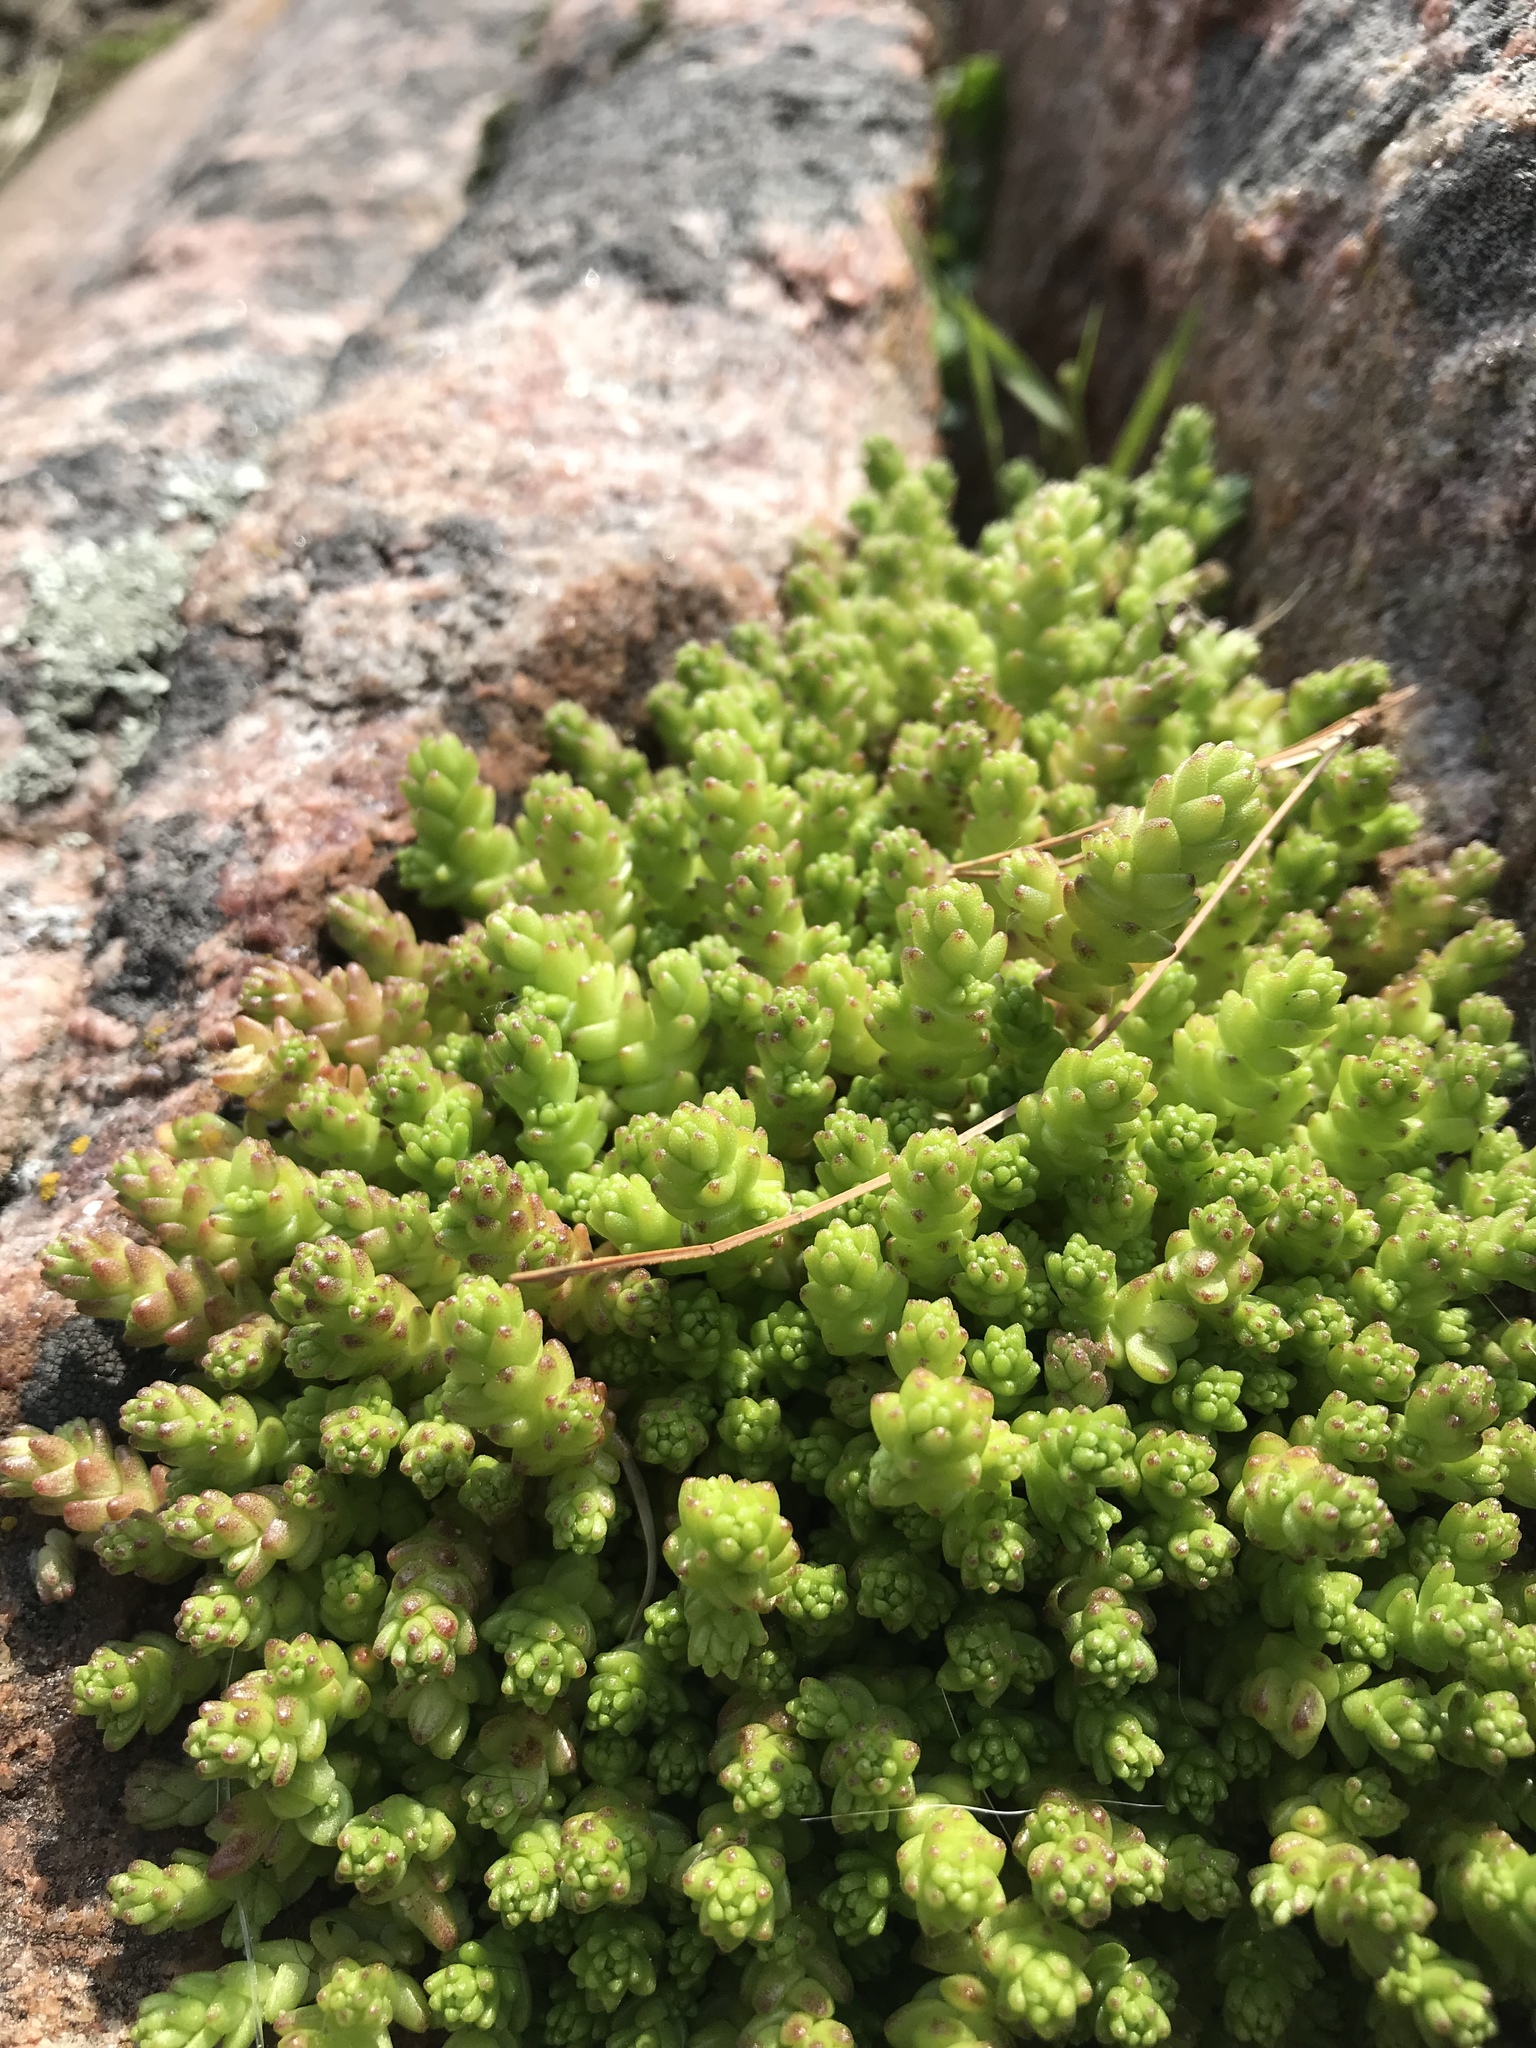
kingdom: Plantae
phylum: Tracheophyta
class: Magnoliopsida
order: Saxifragales
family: Crassulaceae
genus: Sedum
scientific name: Sedum acre
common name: Biting stonecrop
